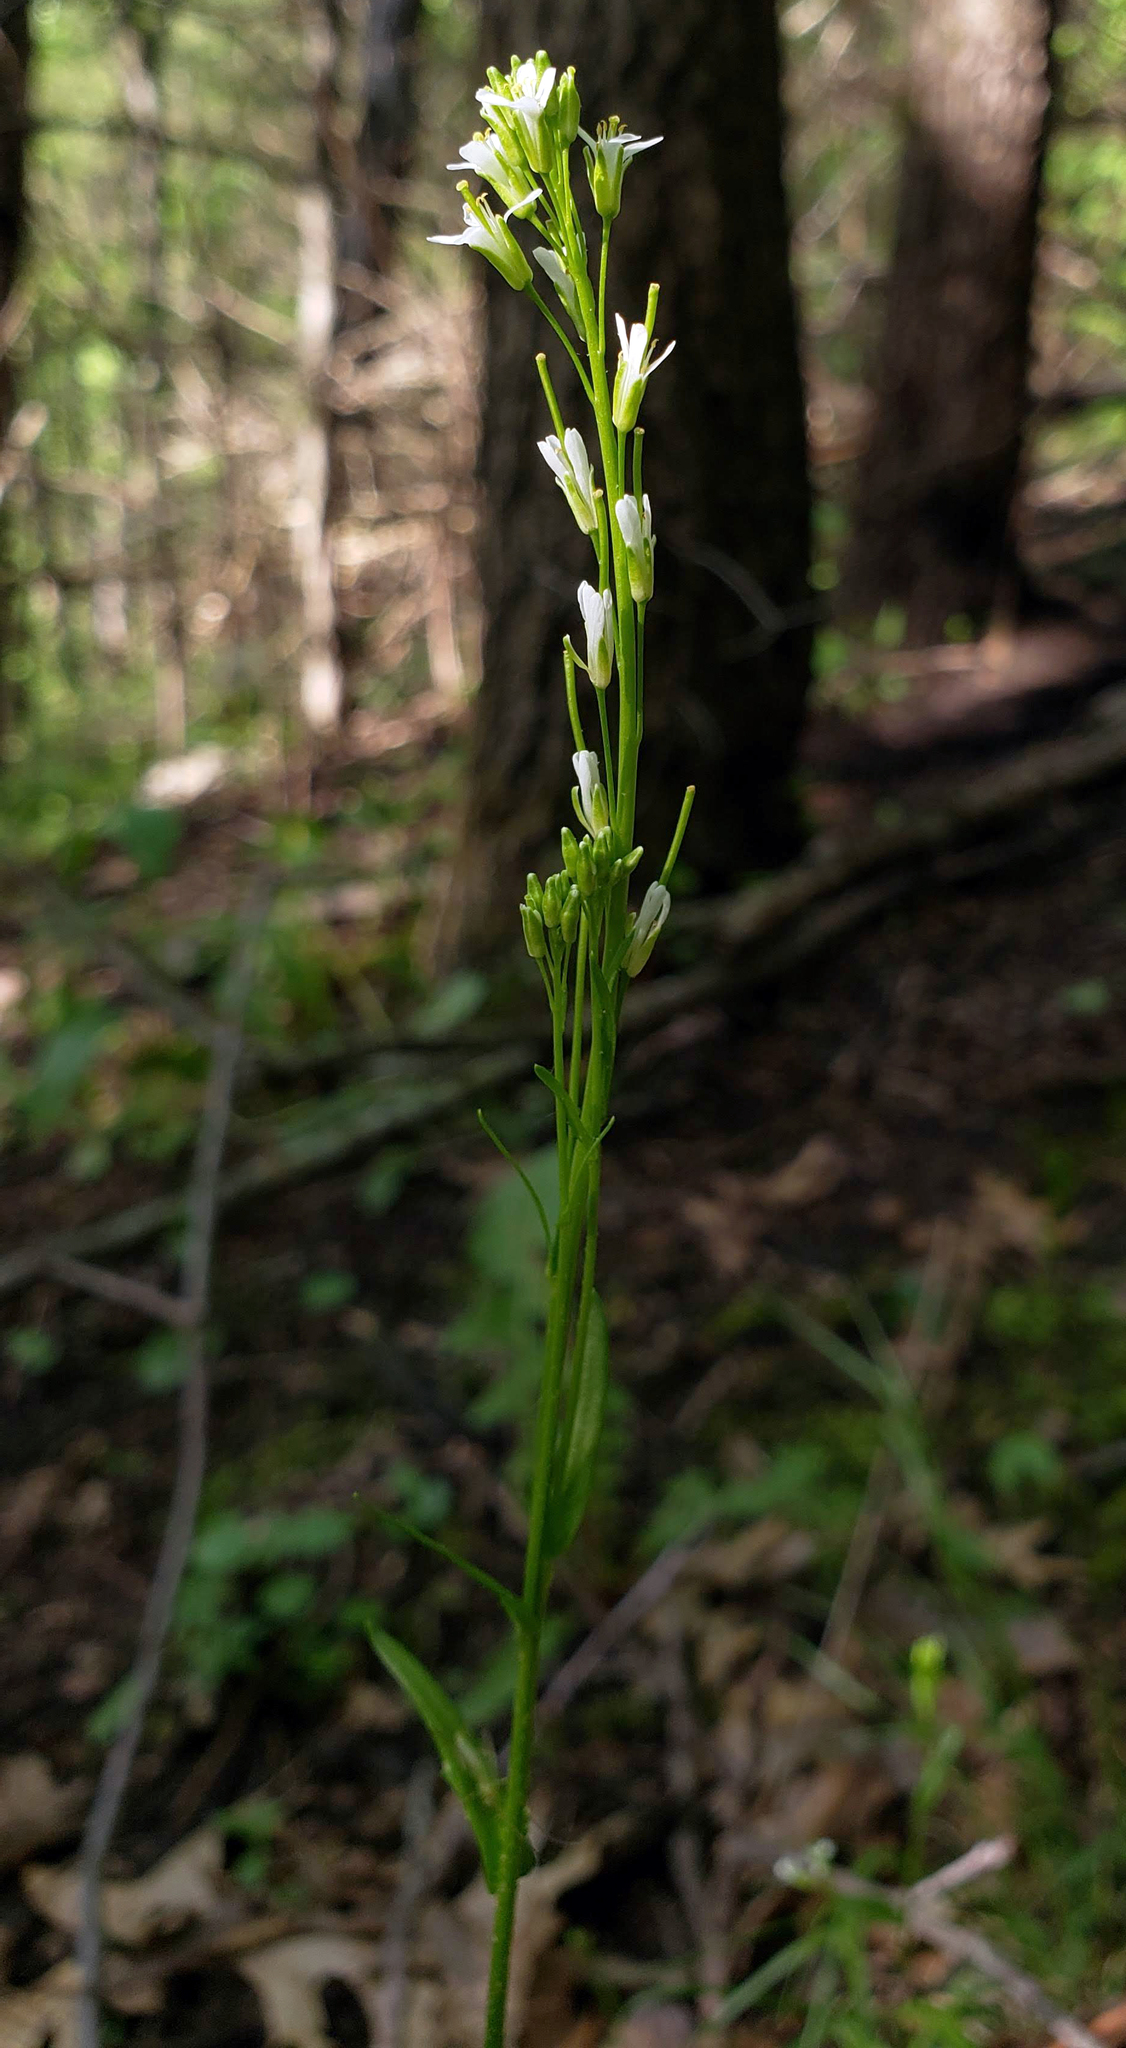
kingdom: Plantae
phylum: Tracheophyta
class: Magnoliopsida
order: Brassicales
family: Brassicaceae
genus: Arabis
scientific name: Arabis pycnocarpa
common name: Blushing rockcress
